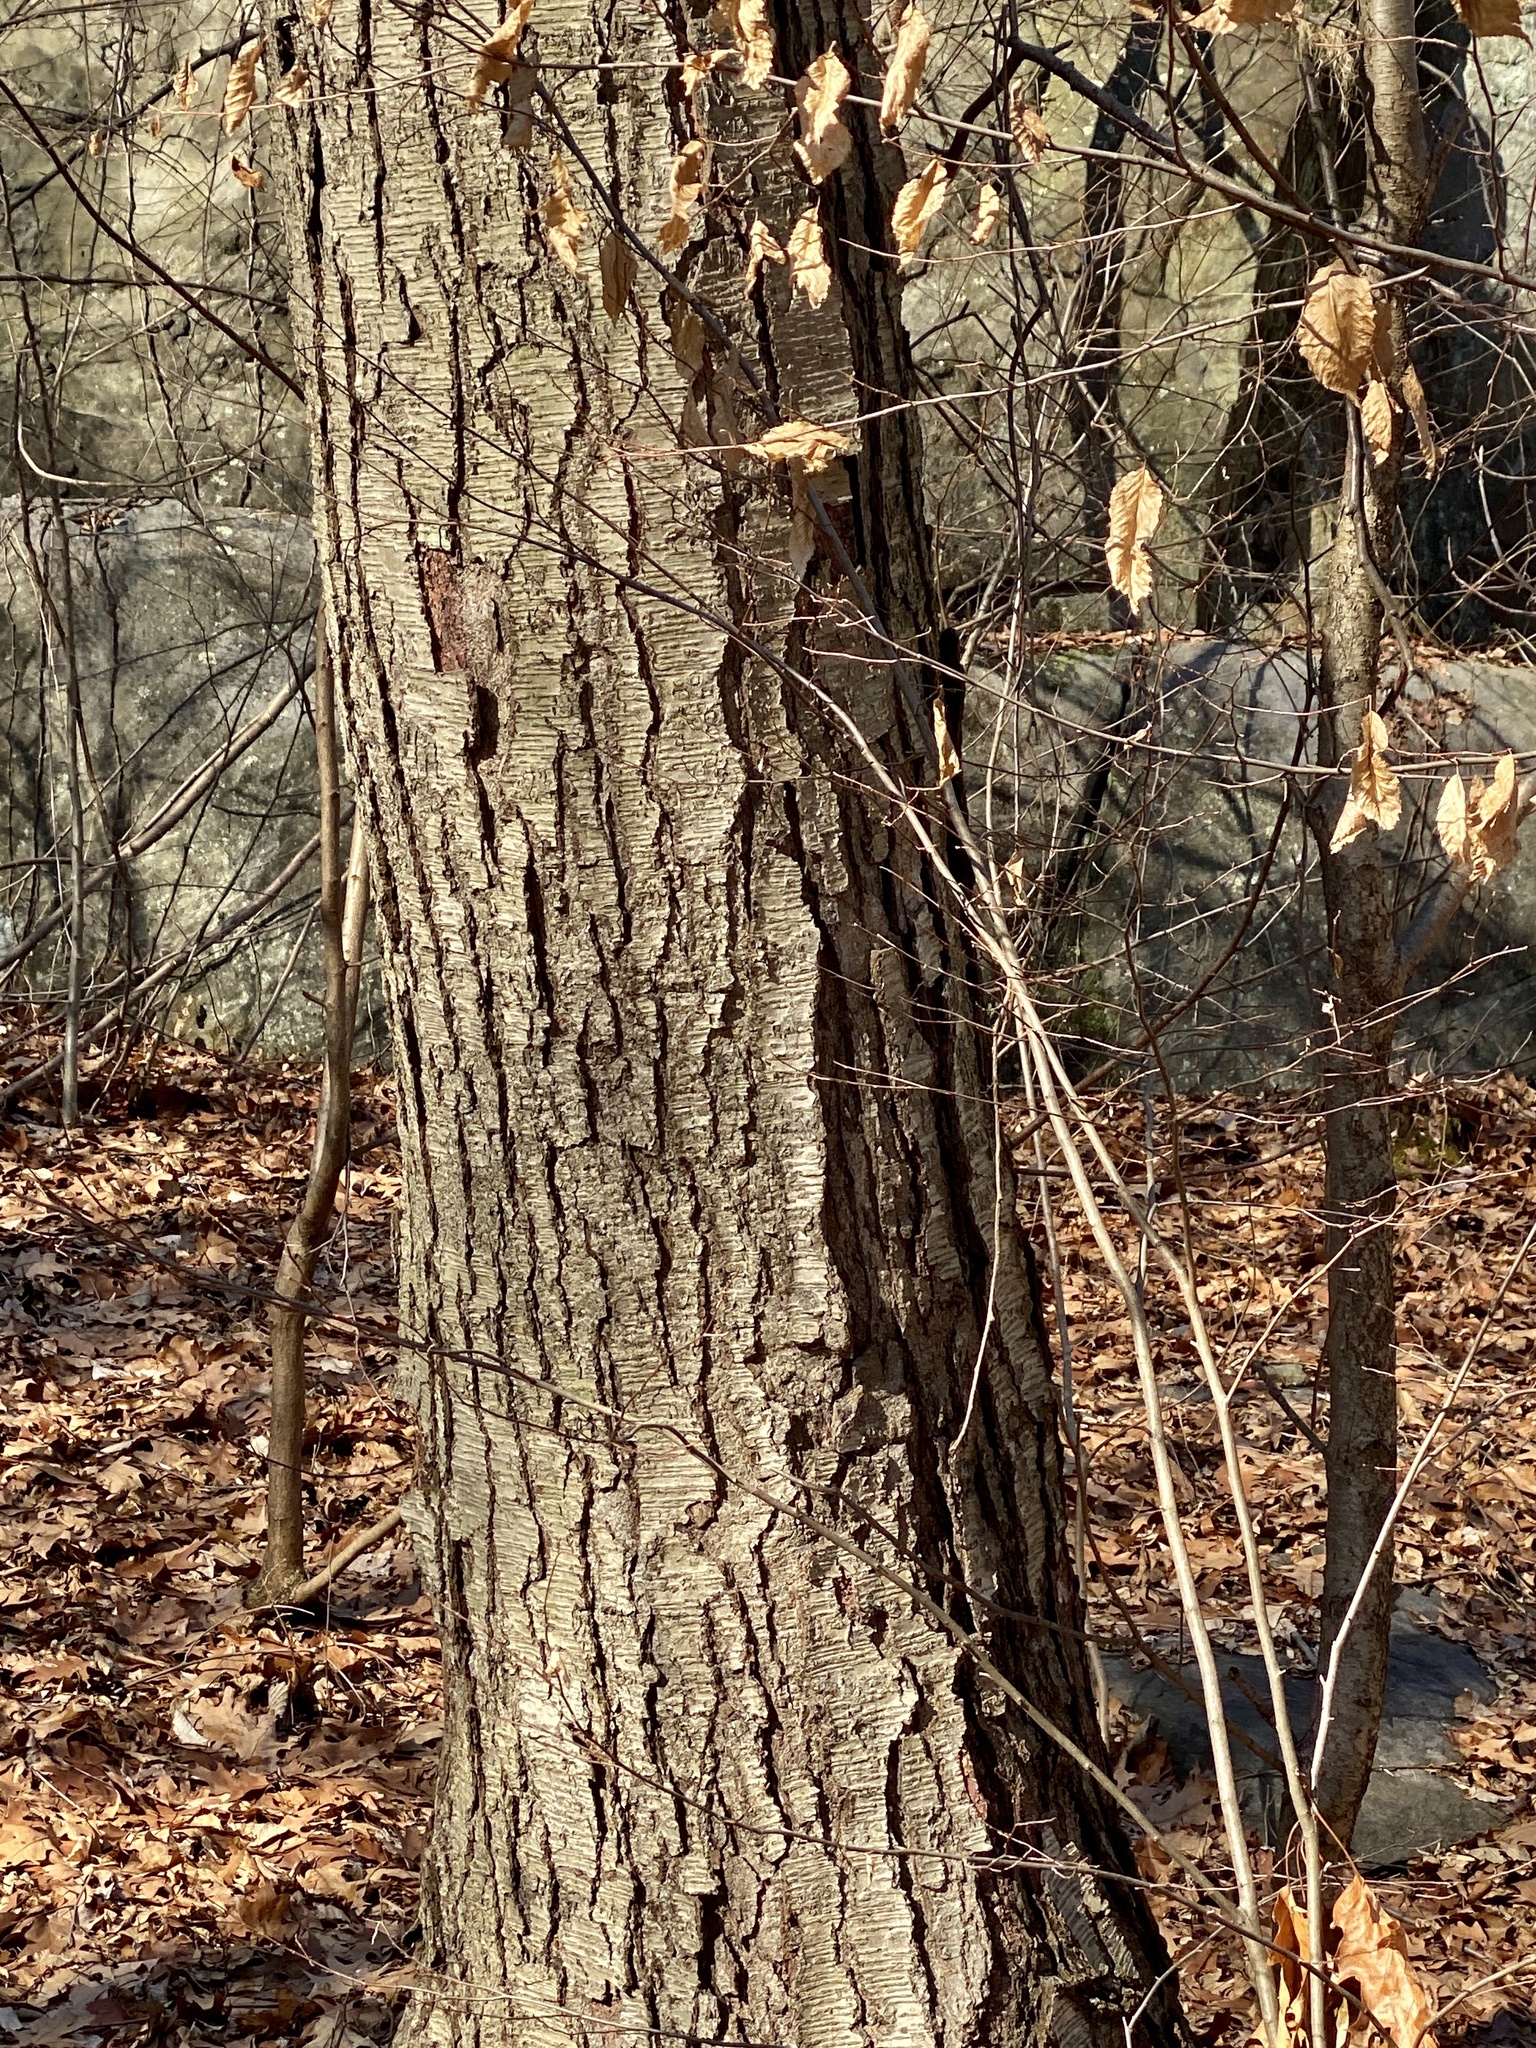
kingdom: Plantae
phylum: Tracheophyta
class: Magnoliopsida
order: Fagales
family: Betulaceae
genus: Betula
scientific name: Betula lenta
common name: Black birch
